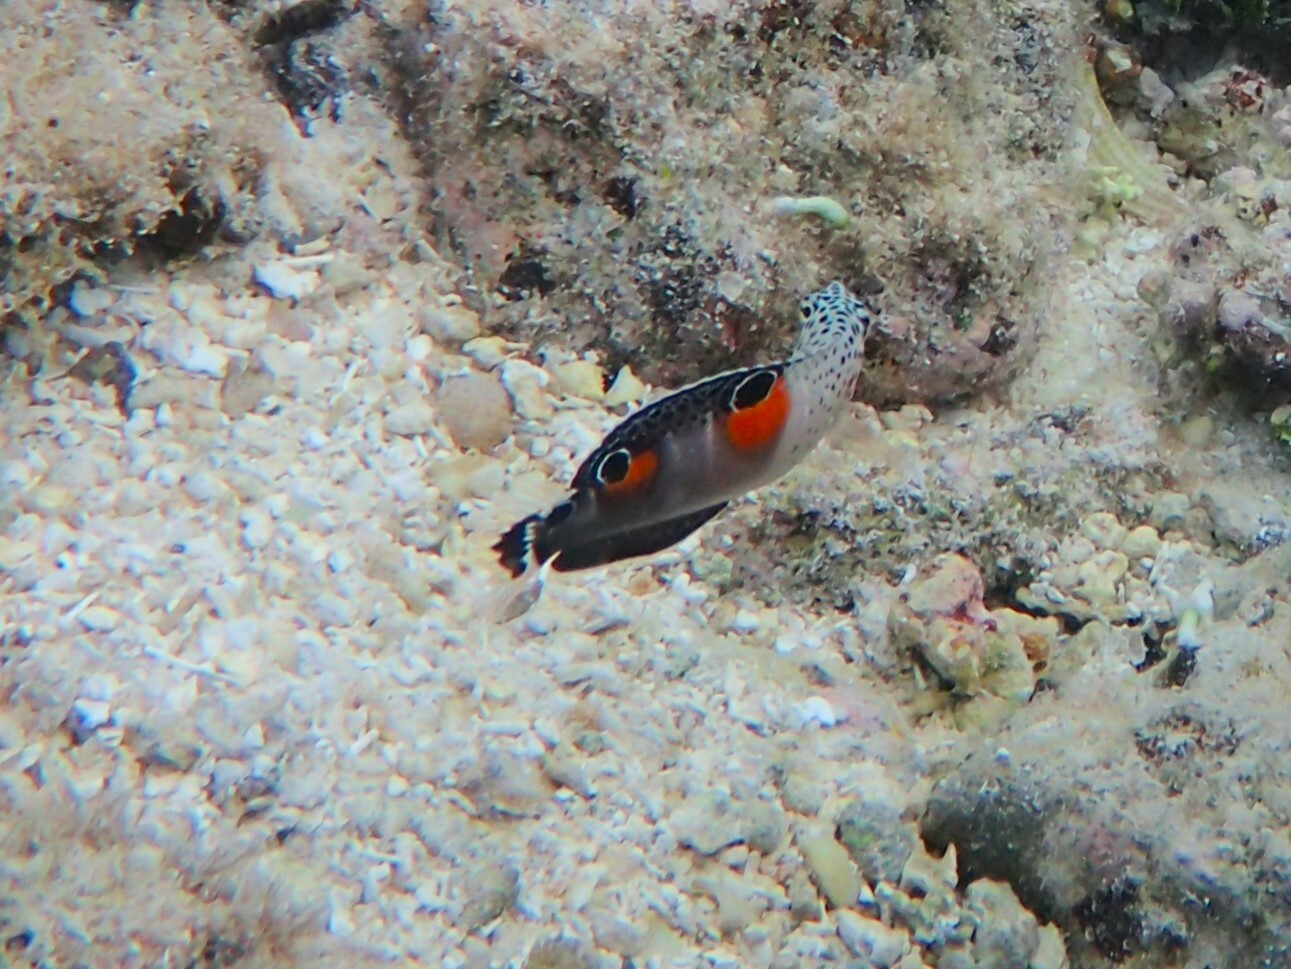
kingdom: Animalia
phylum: Chordata
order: Perciformes
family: Labridae
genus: Coris
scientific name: Coris aygula
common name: Clown coris
